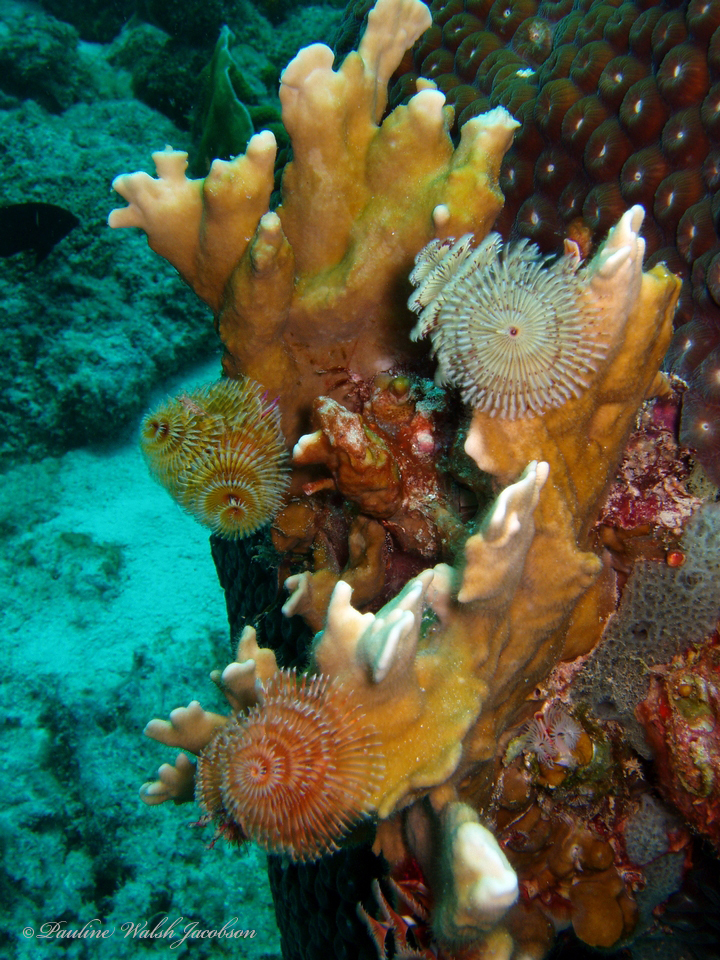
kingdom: Animalia
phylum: Annelida
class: Polychaeta
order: Sabellida
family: Serpulidae
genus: Spirobranchus
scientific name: Spirobranchus giganteus
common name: Christmas tree worm
